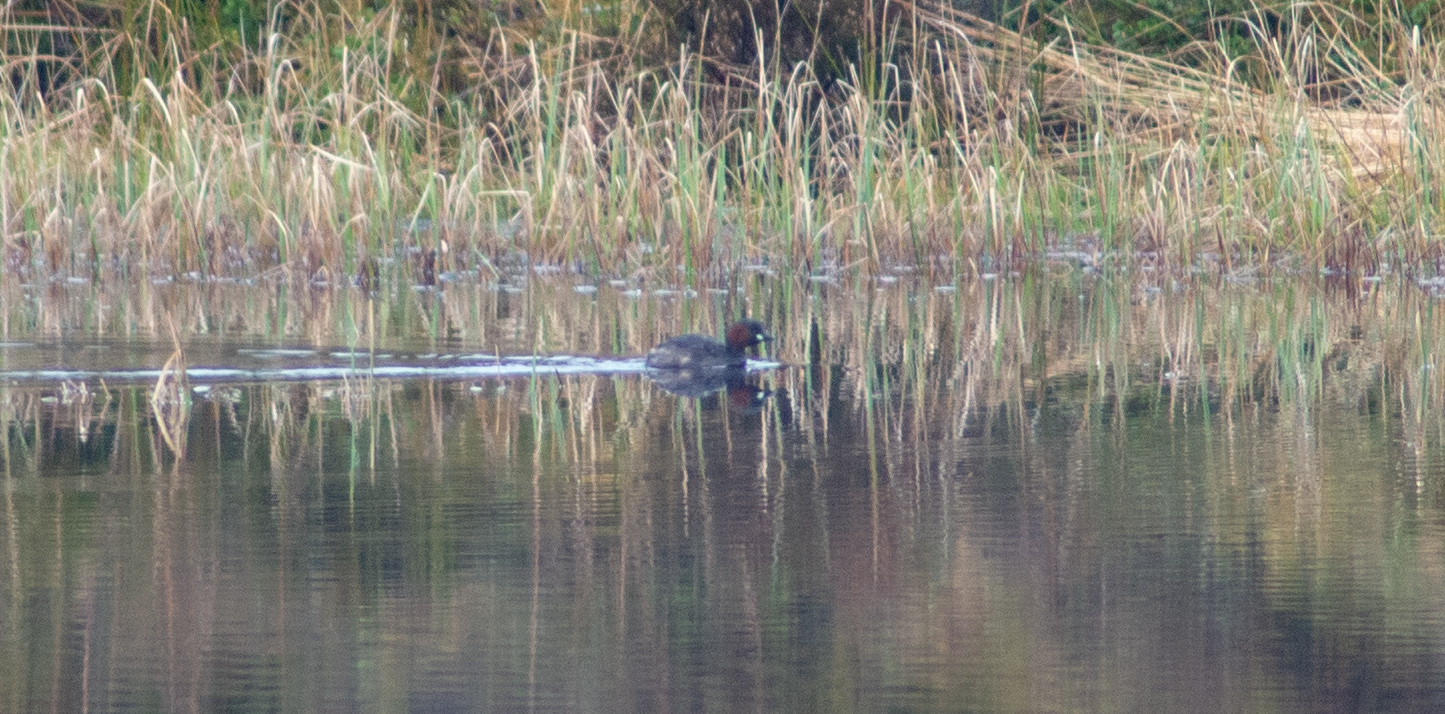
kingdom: Animalia
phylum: Chordata
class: Aves
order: Podicipediformes
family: Podicipedidae
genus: Tachybaptus
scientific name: Tachybaptus ruficollis
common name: Little grebe
